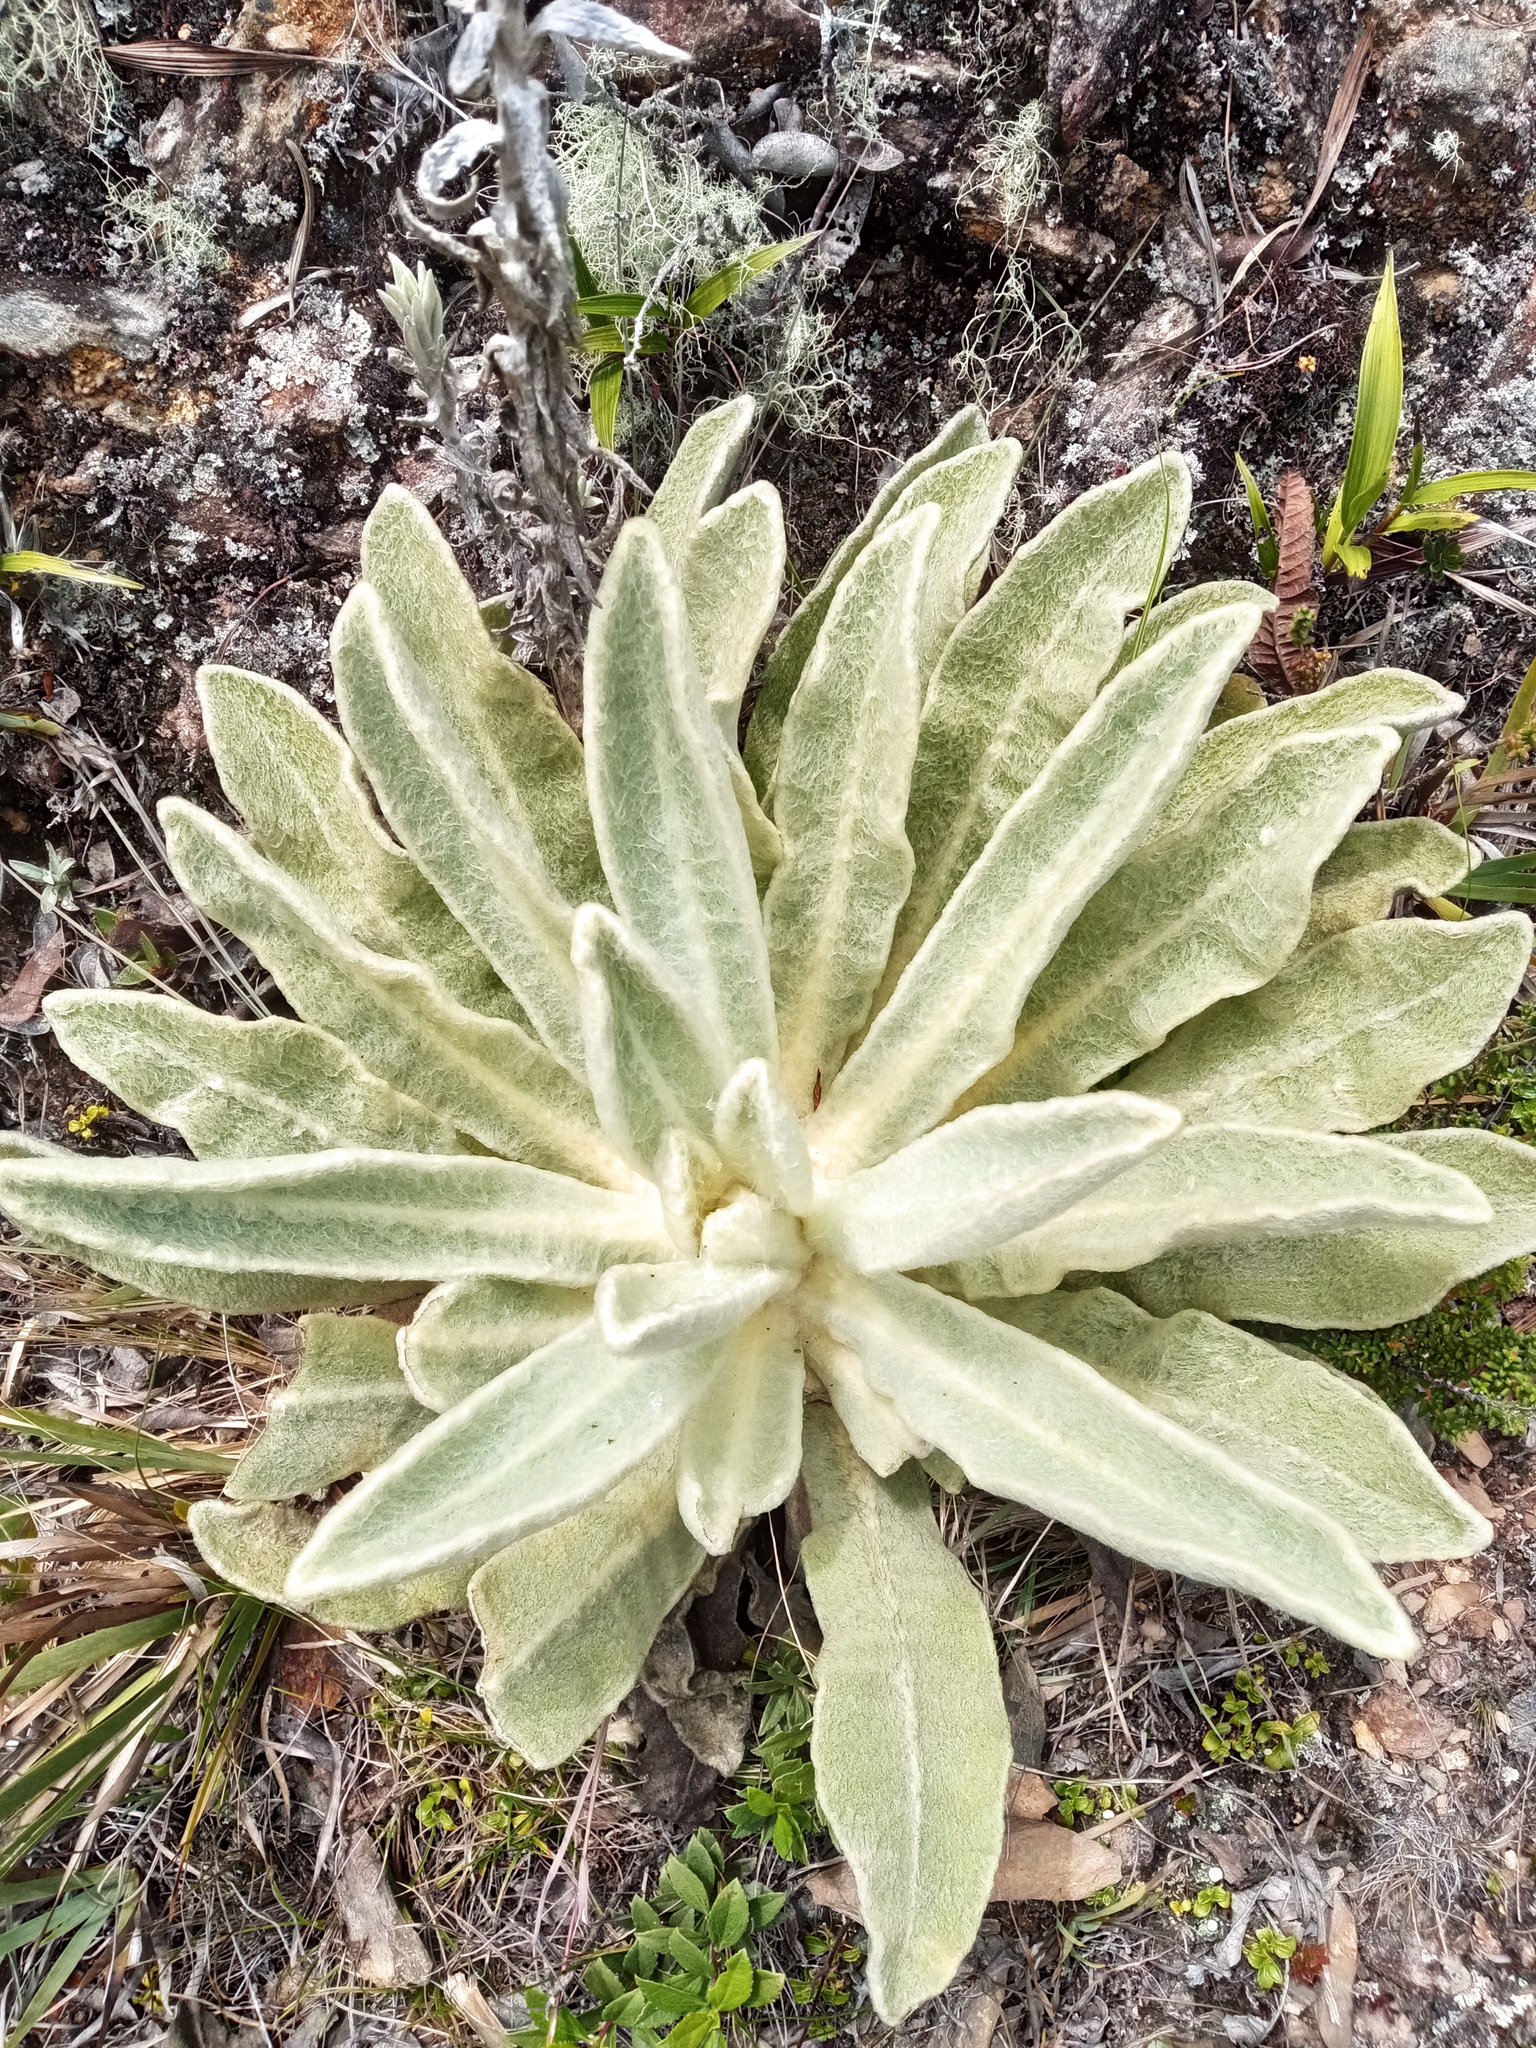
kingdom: Plantae
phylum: Tracheophyta
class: Magnoliopsida
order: Asterales
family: Asteraceae
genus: Espeletia
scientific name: Espeletia aristeguietana
